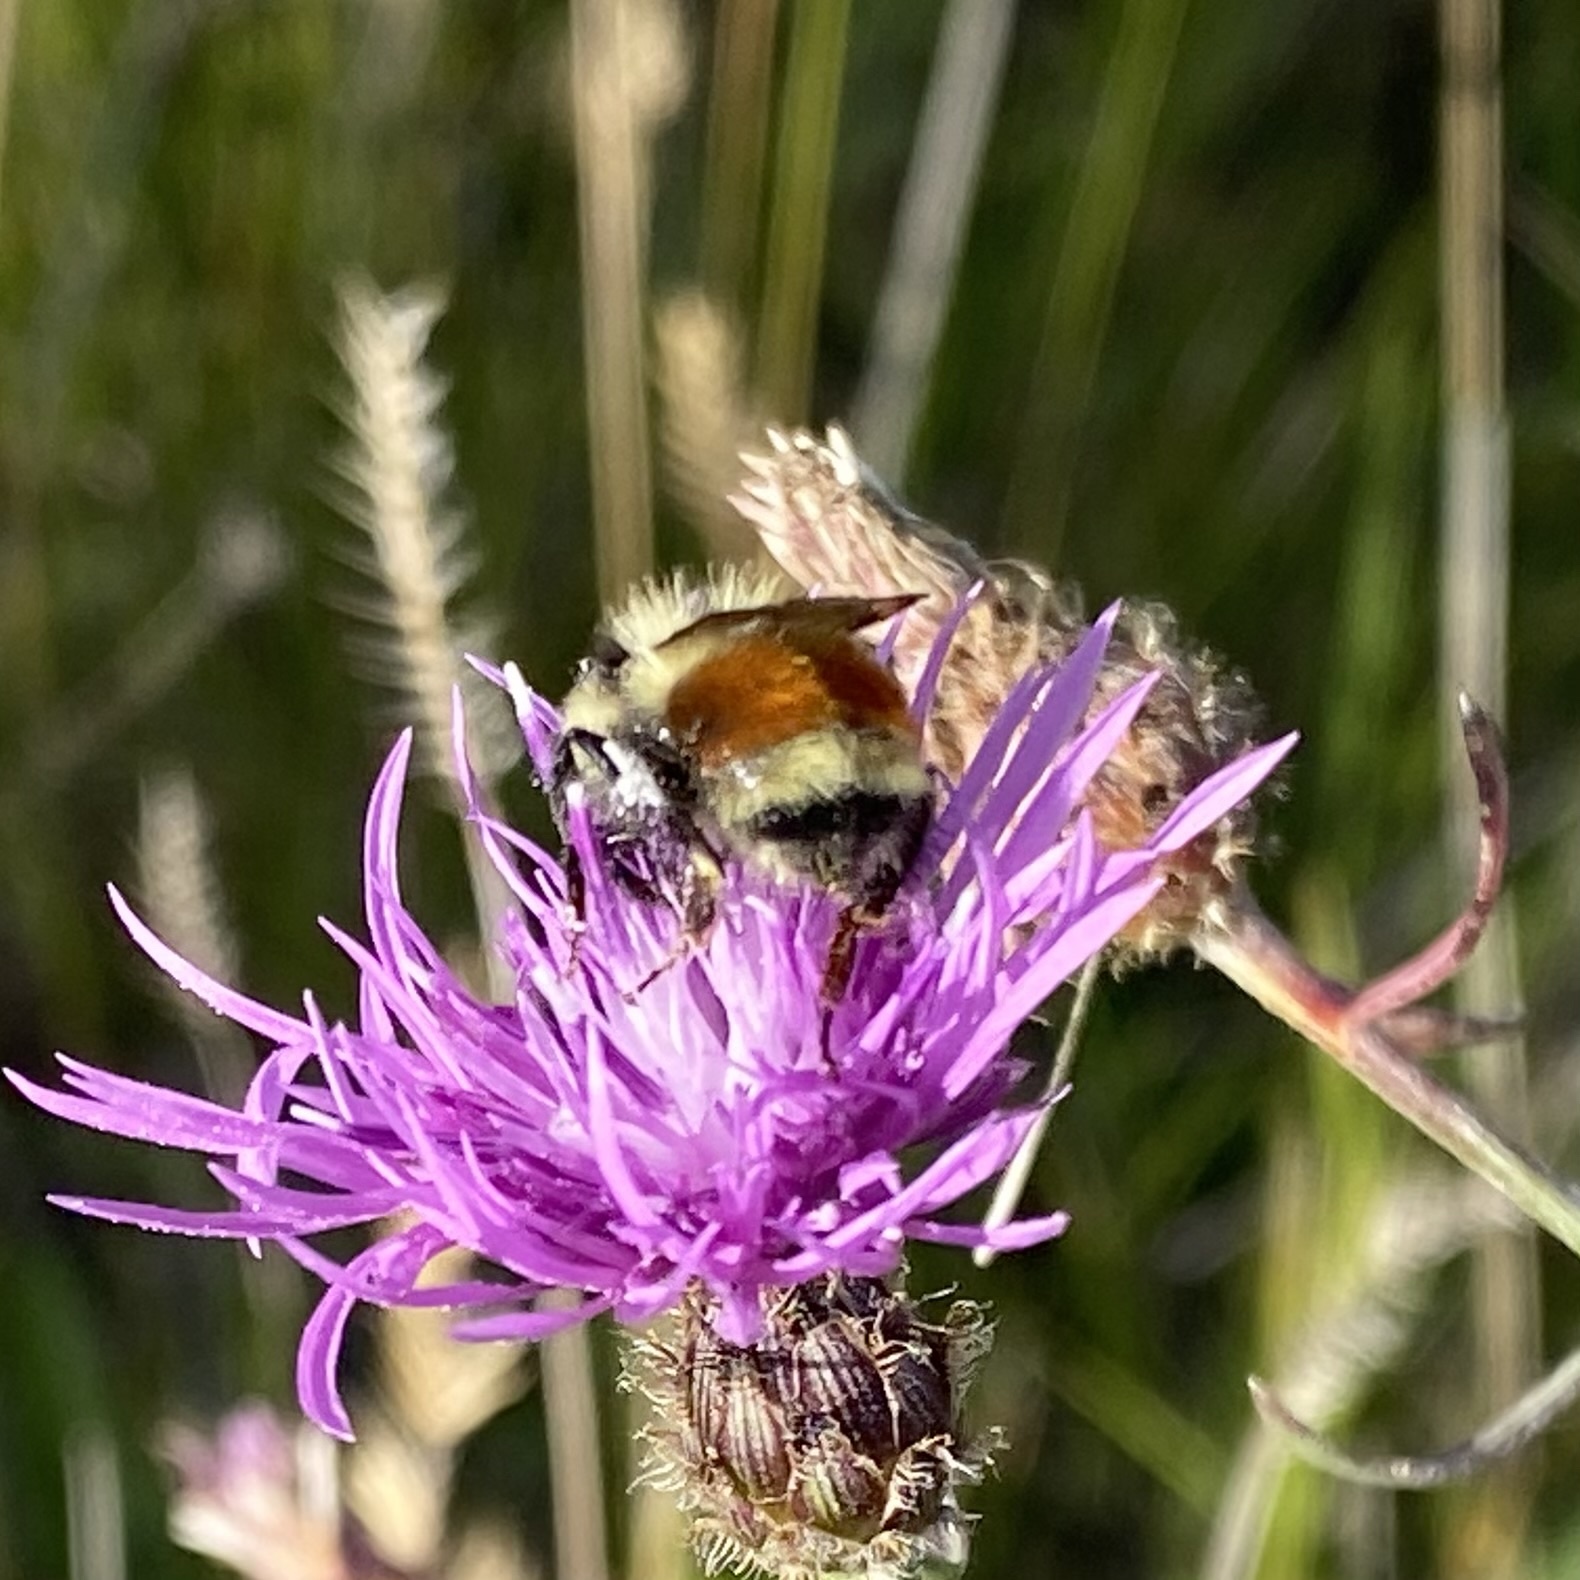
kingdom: Animalia
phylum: Arthropoda
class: Insecta
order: Hymenoptera
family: Apidae
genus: Bombus
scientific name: Bombus huntii
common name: Hunt bumble bee
